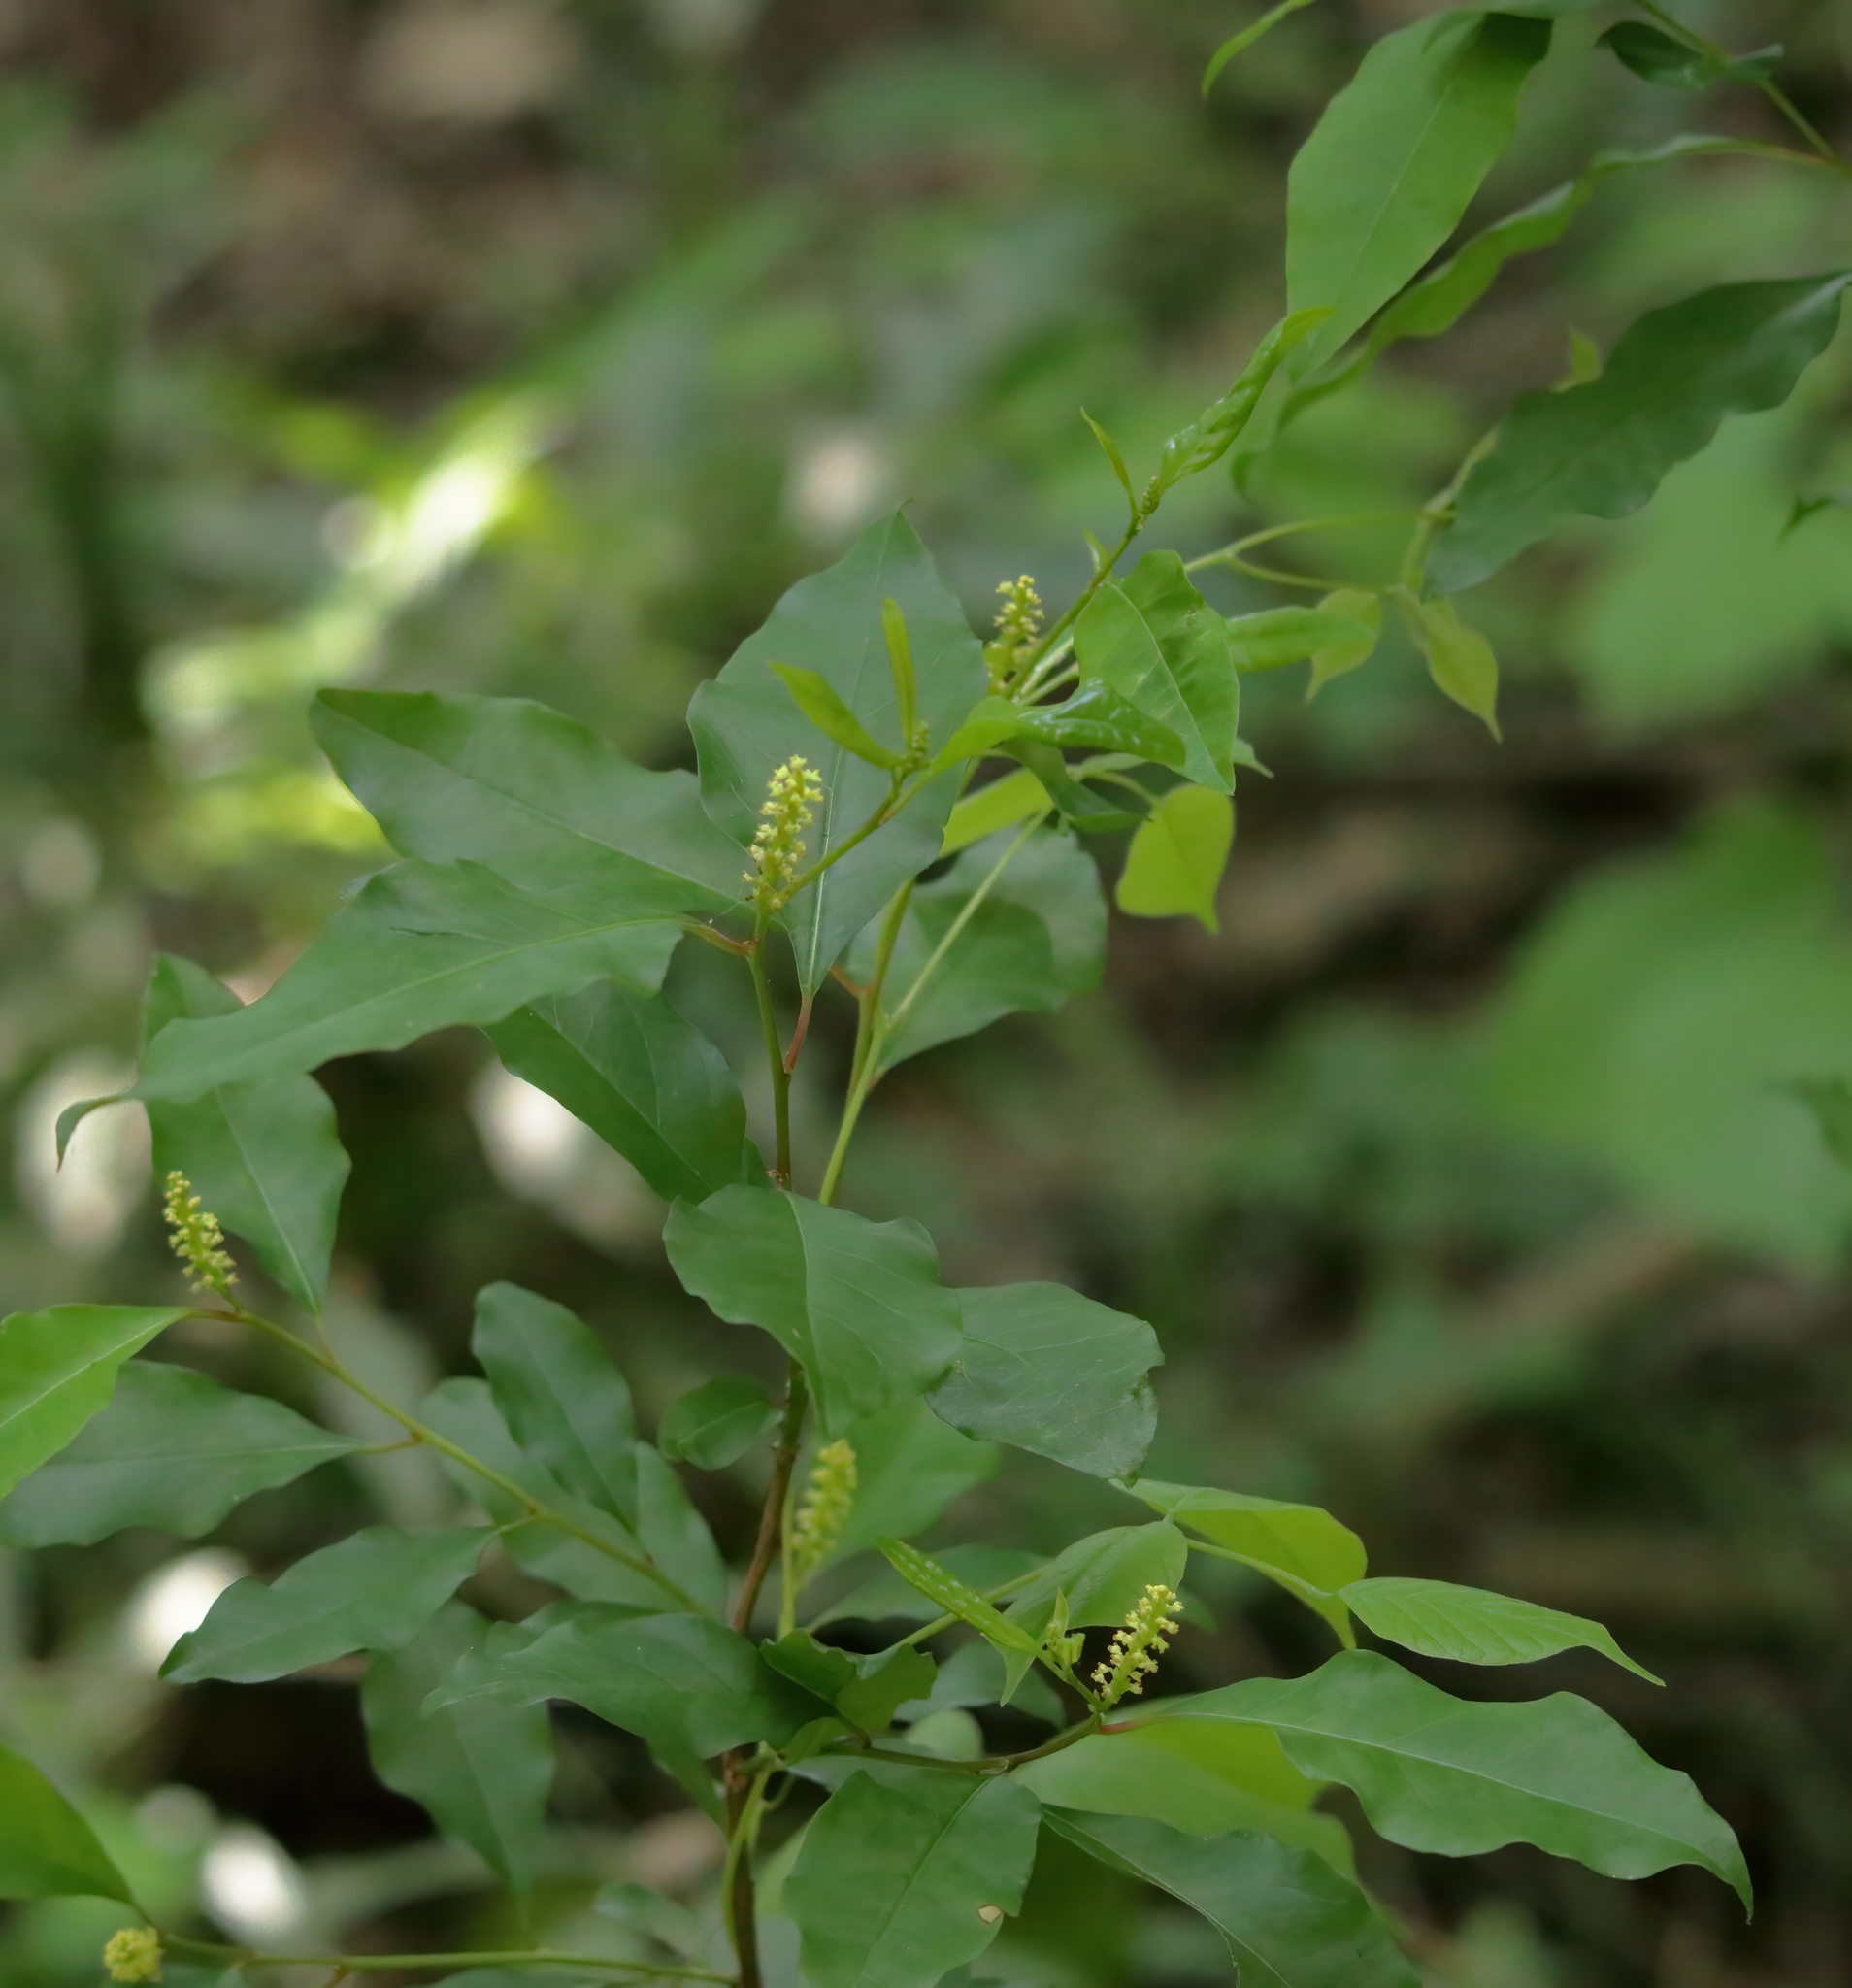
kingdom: Plantae
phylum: Tracheophyta
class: Magnoliopsida
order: Malpighiales
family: Euphorbiaceae
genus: Ditrysinia
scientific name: Ditrysinia fruticosa
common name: Gulf sebastian-bush
